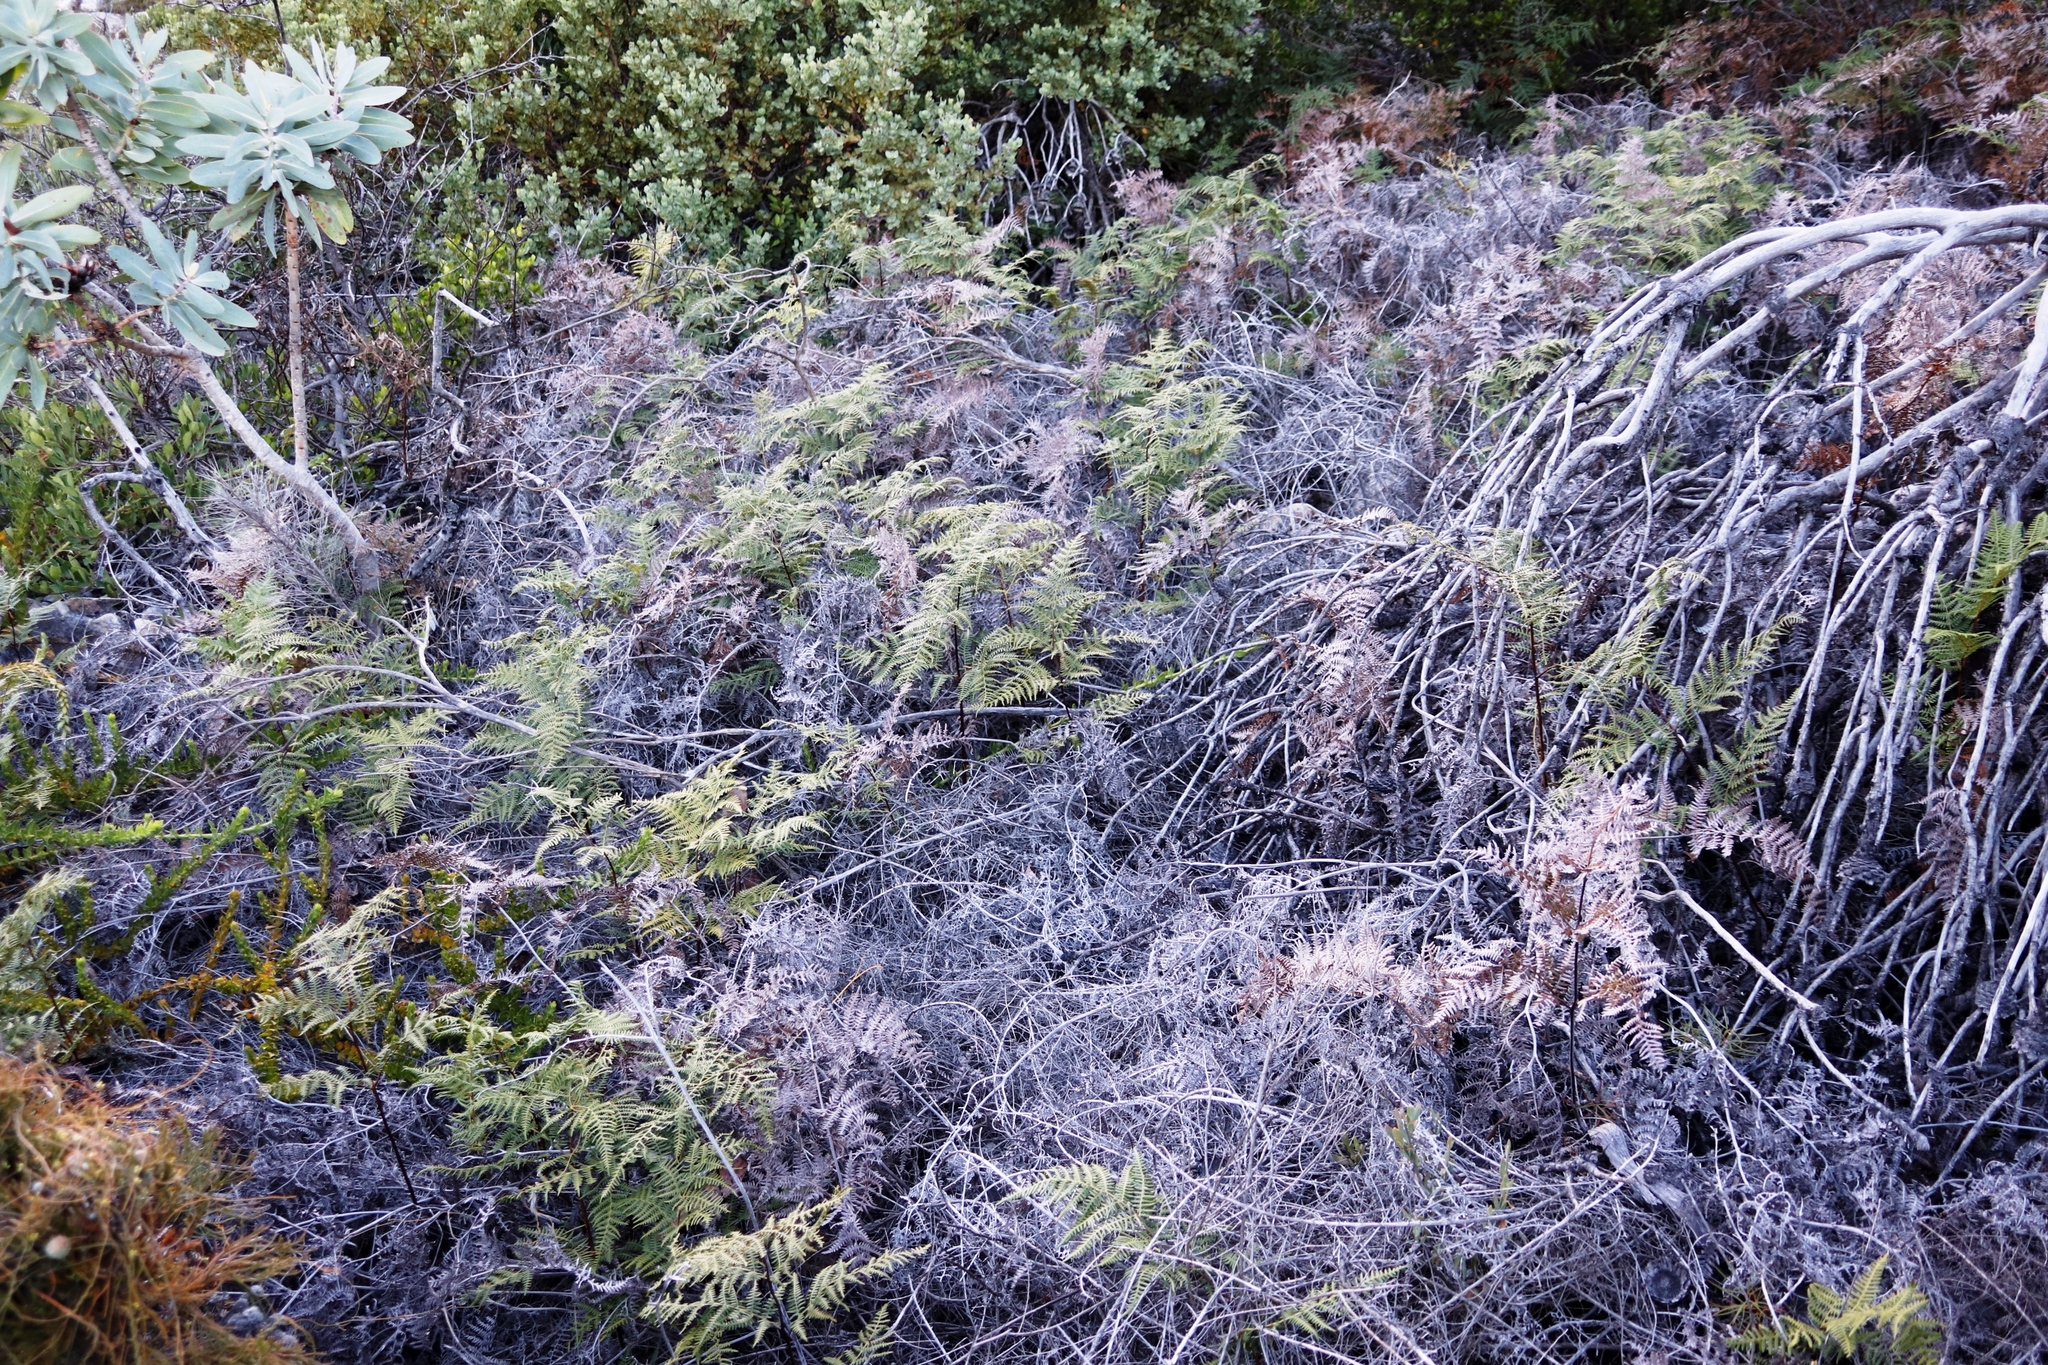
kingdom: Plantae
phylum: Tracheophyta
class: Polypodiopsida
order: Polypodiales
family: Dennstaedtiaceae
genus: Pteridium
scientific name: Pteridium aquilinum
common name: Bracken
